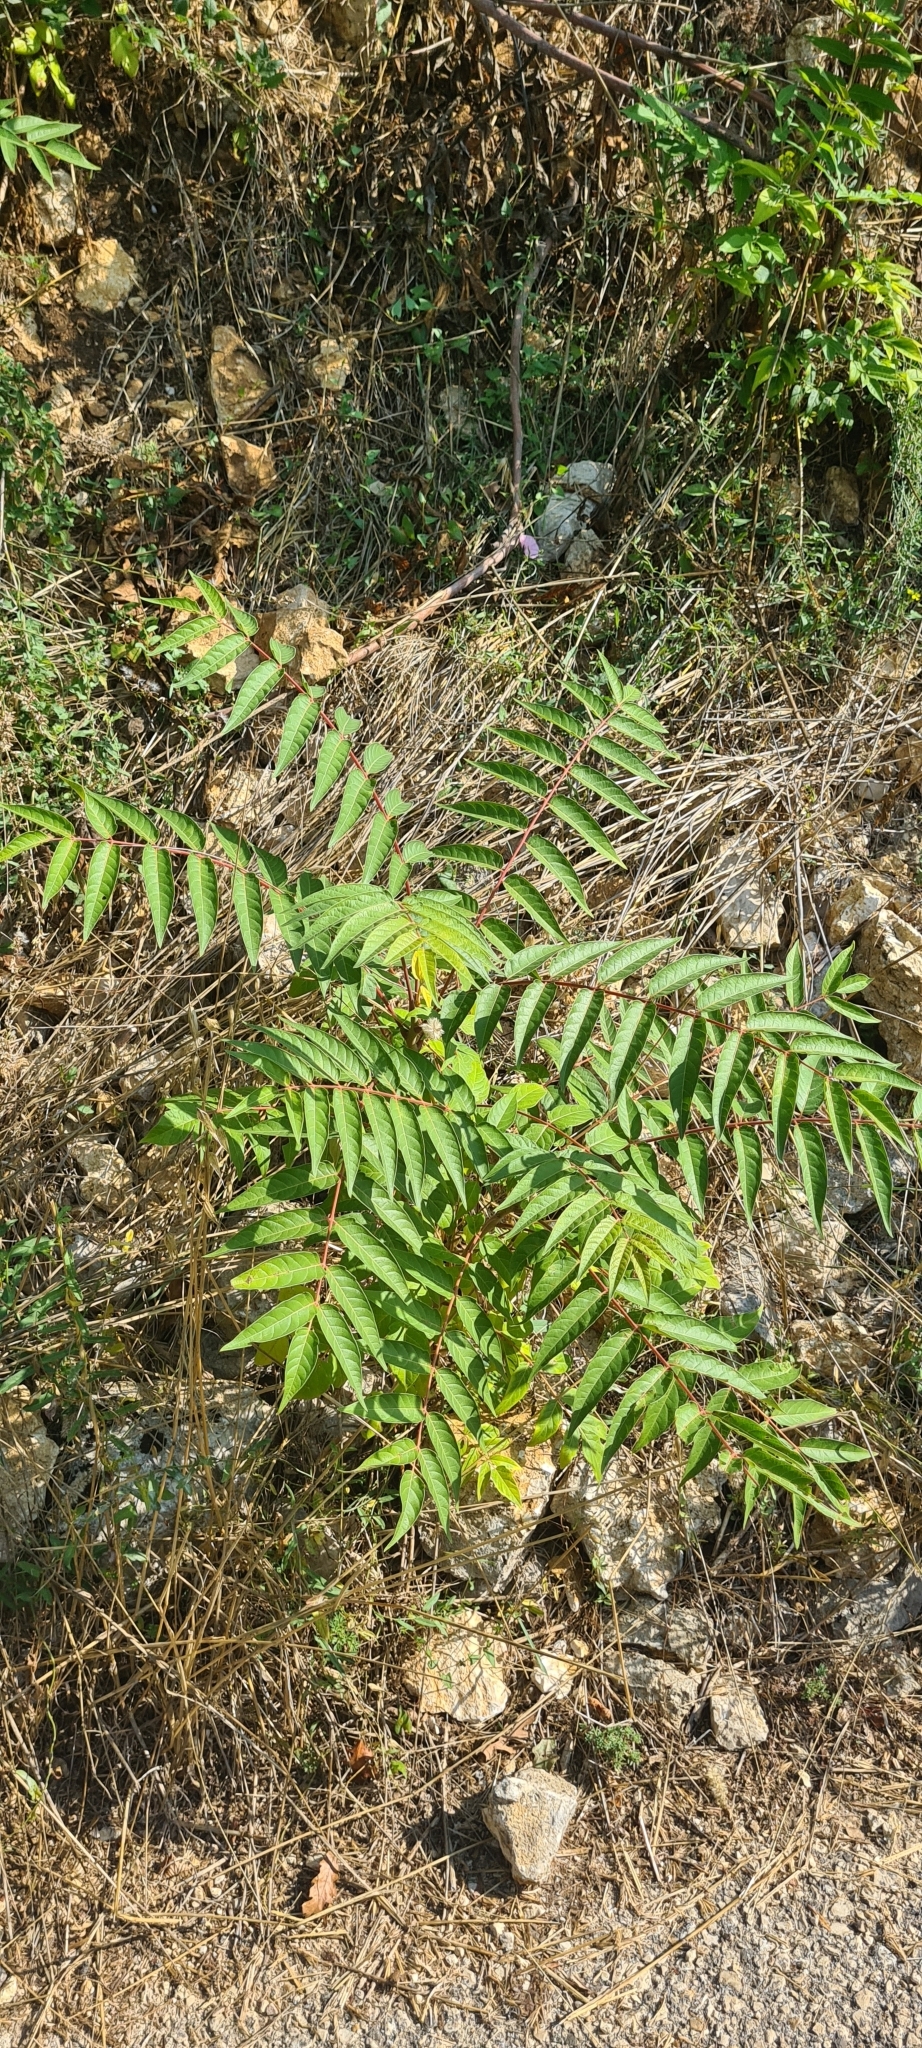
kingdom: Plantae
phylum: Tracheophyta
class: Magnoliopsida
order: Sapindales
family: Simaroubaceae
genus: Ailanthus
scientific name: Ailanthus altissima
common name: Tree-of-heaven
